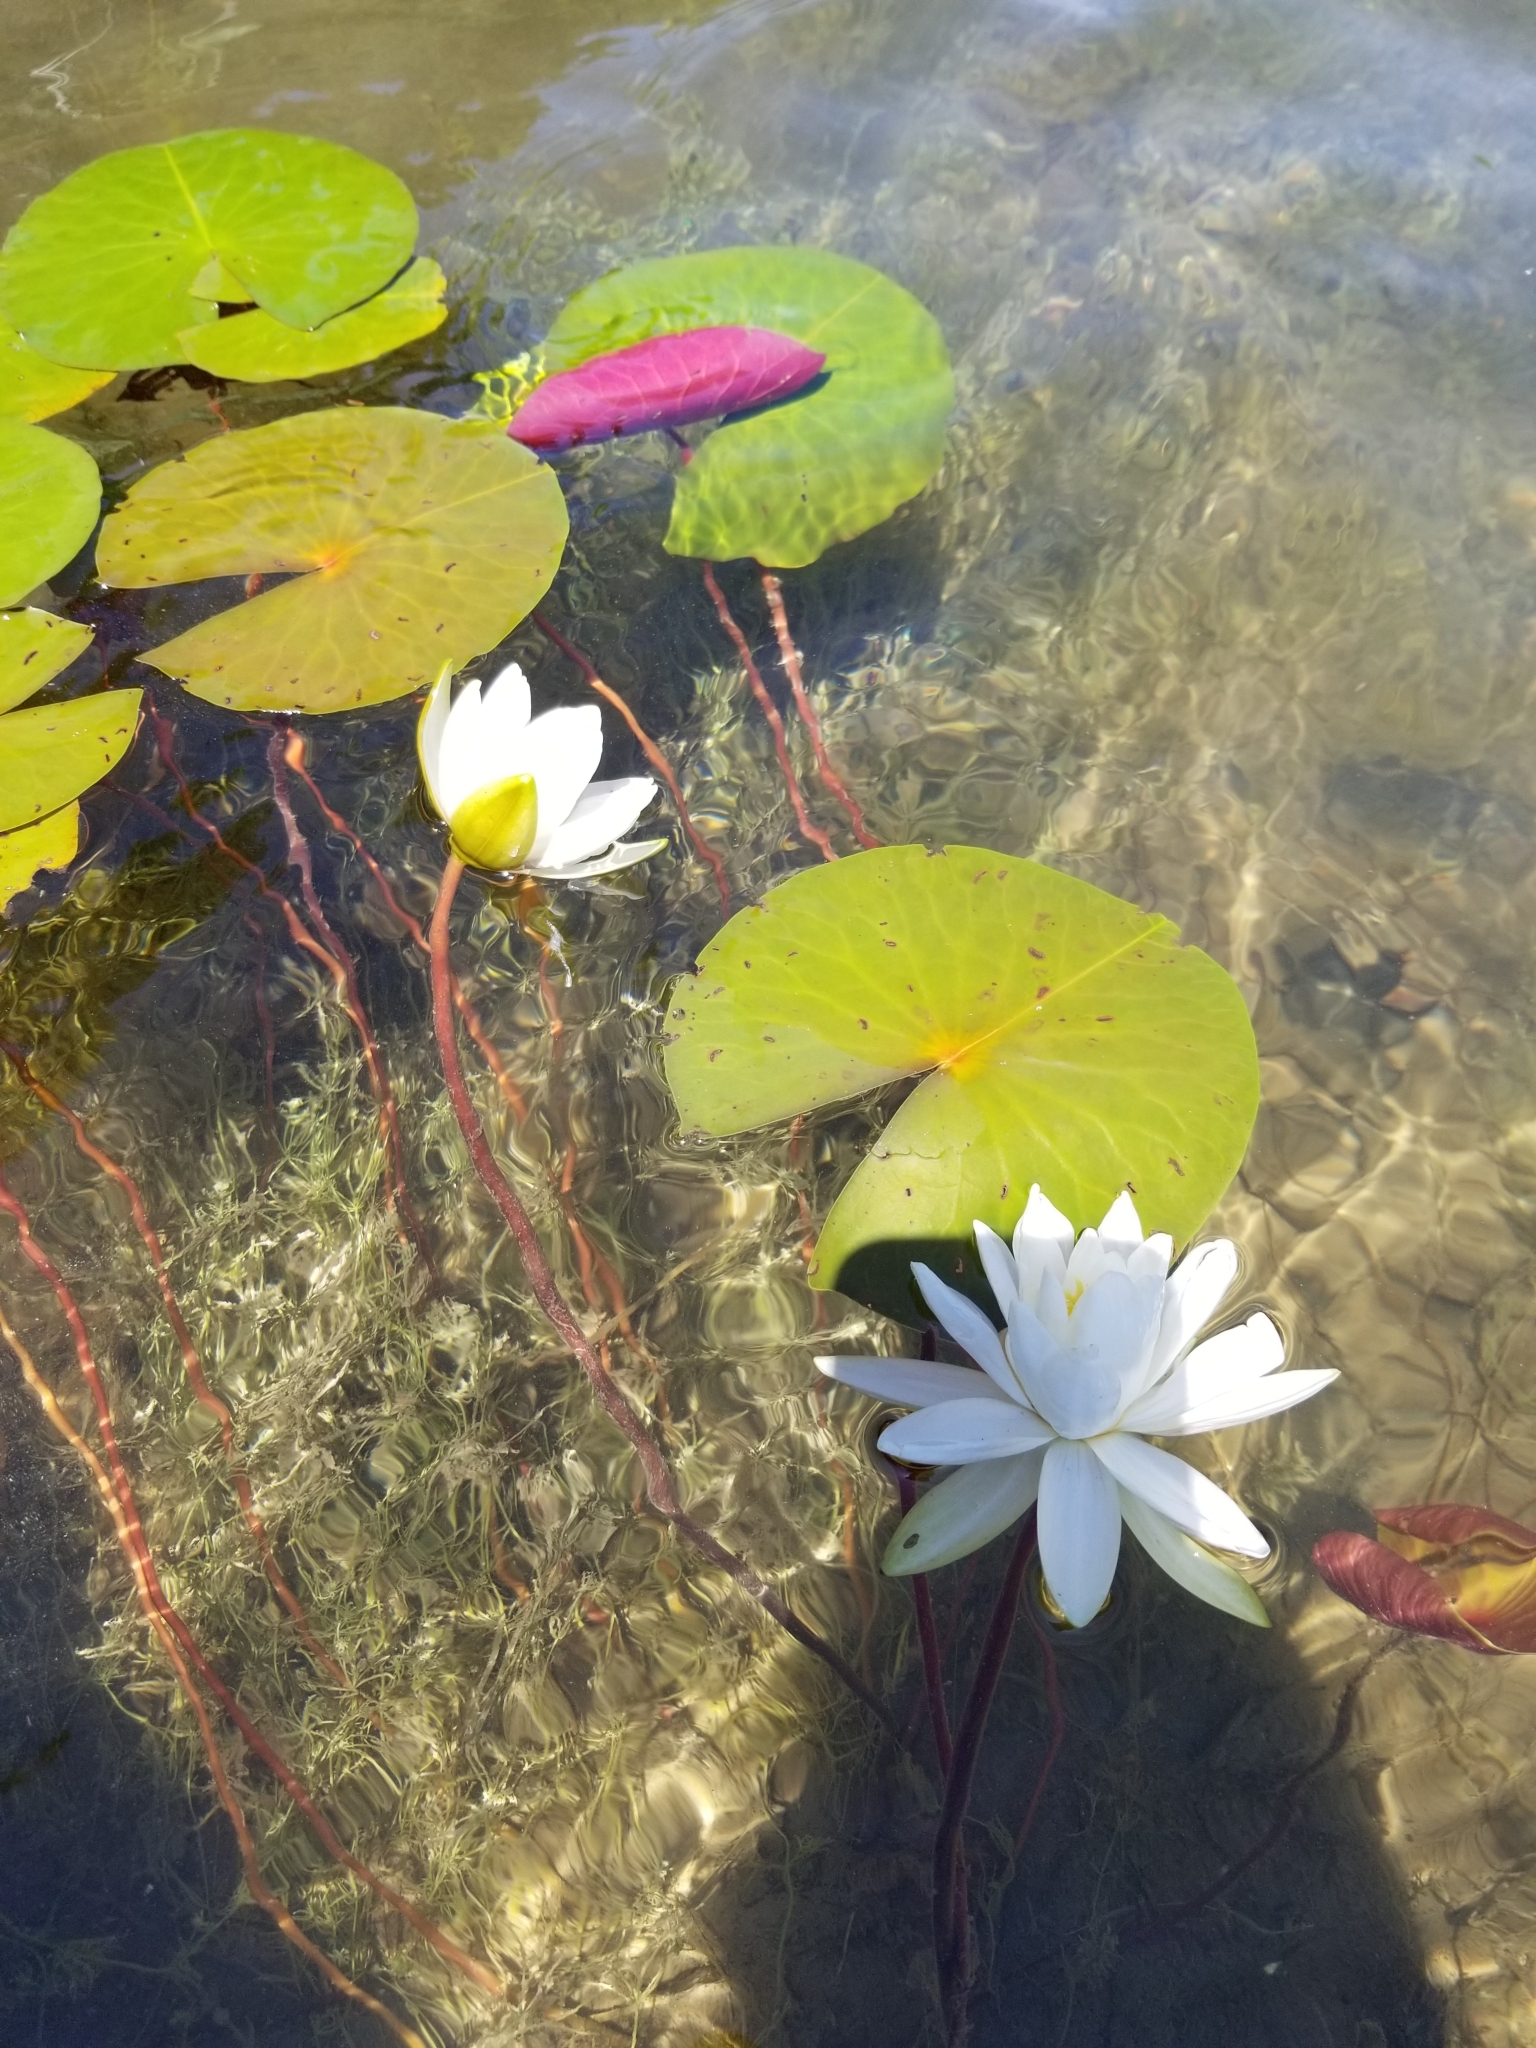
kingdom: Plantae
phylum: Tracheophyta
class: Magnoliopsida
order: Nymphaeales
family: Nymphaeaceae
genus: Nymphaea
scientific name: Nymphaea odorata
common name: Fragrant water-lily
